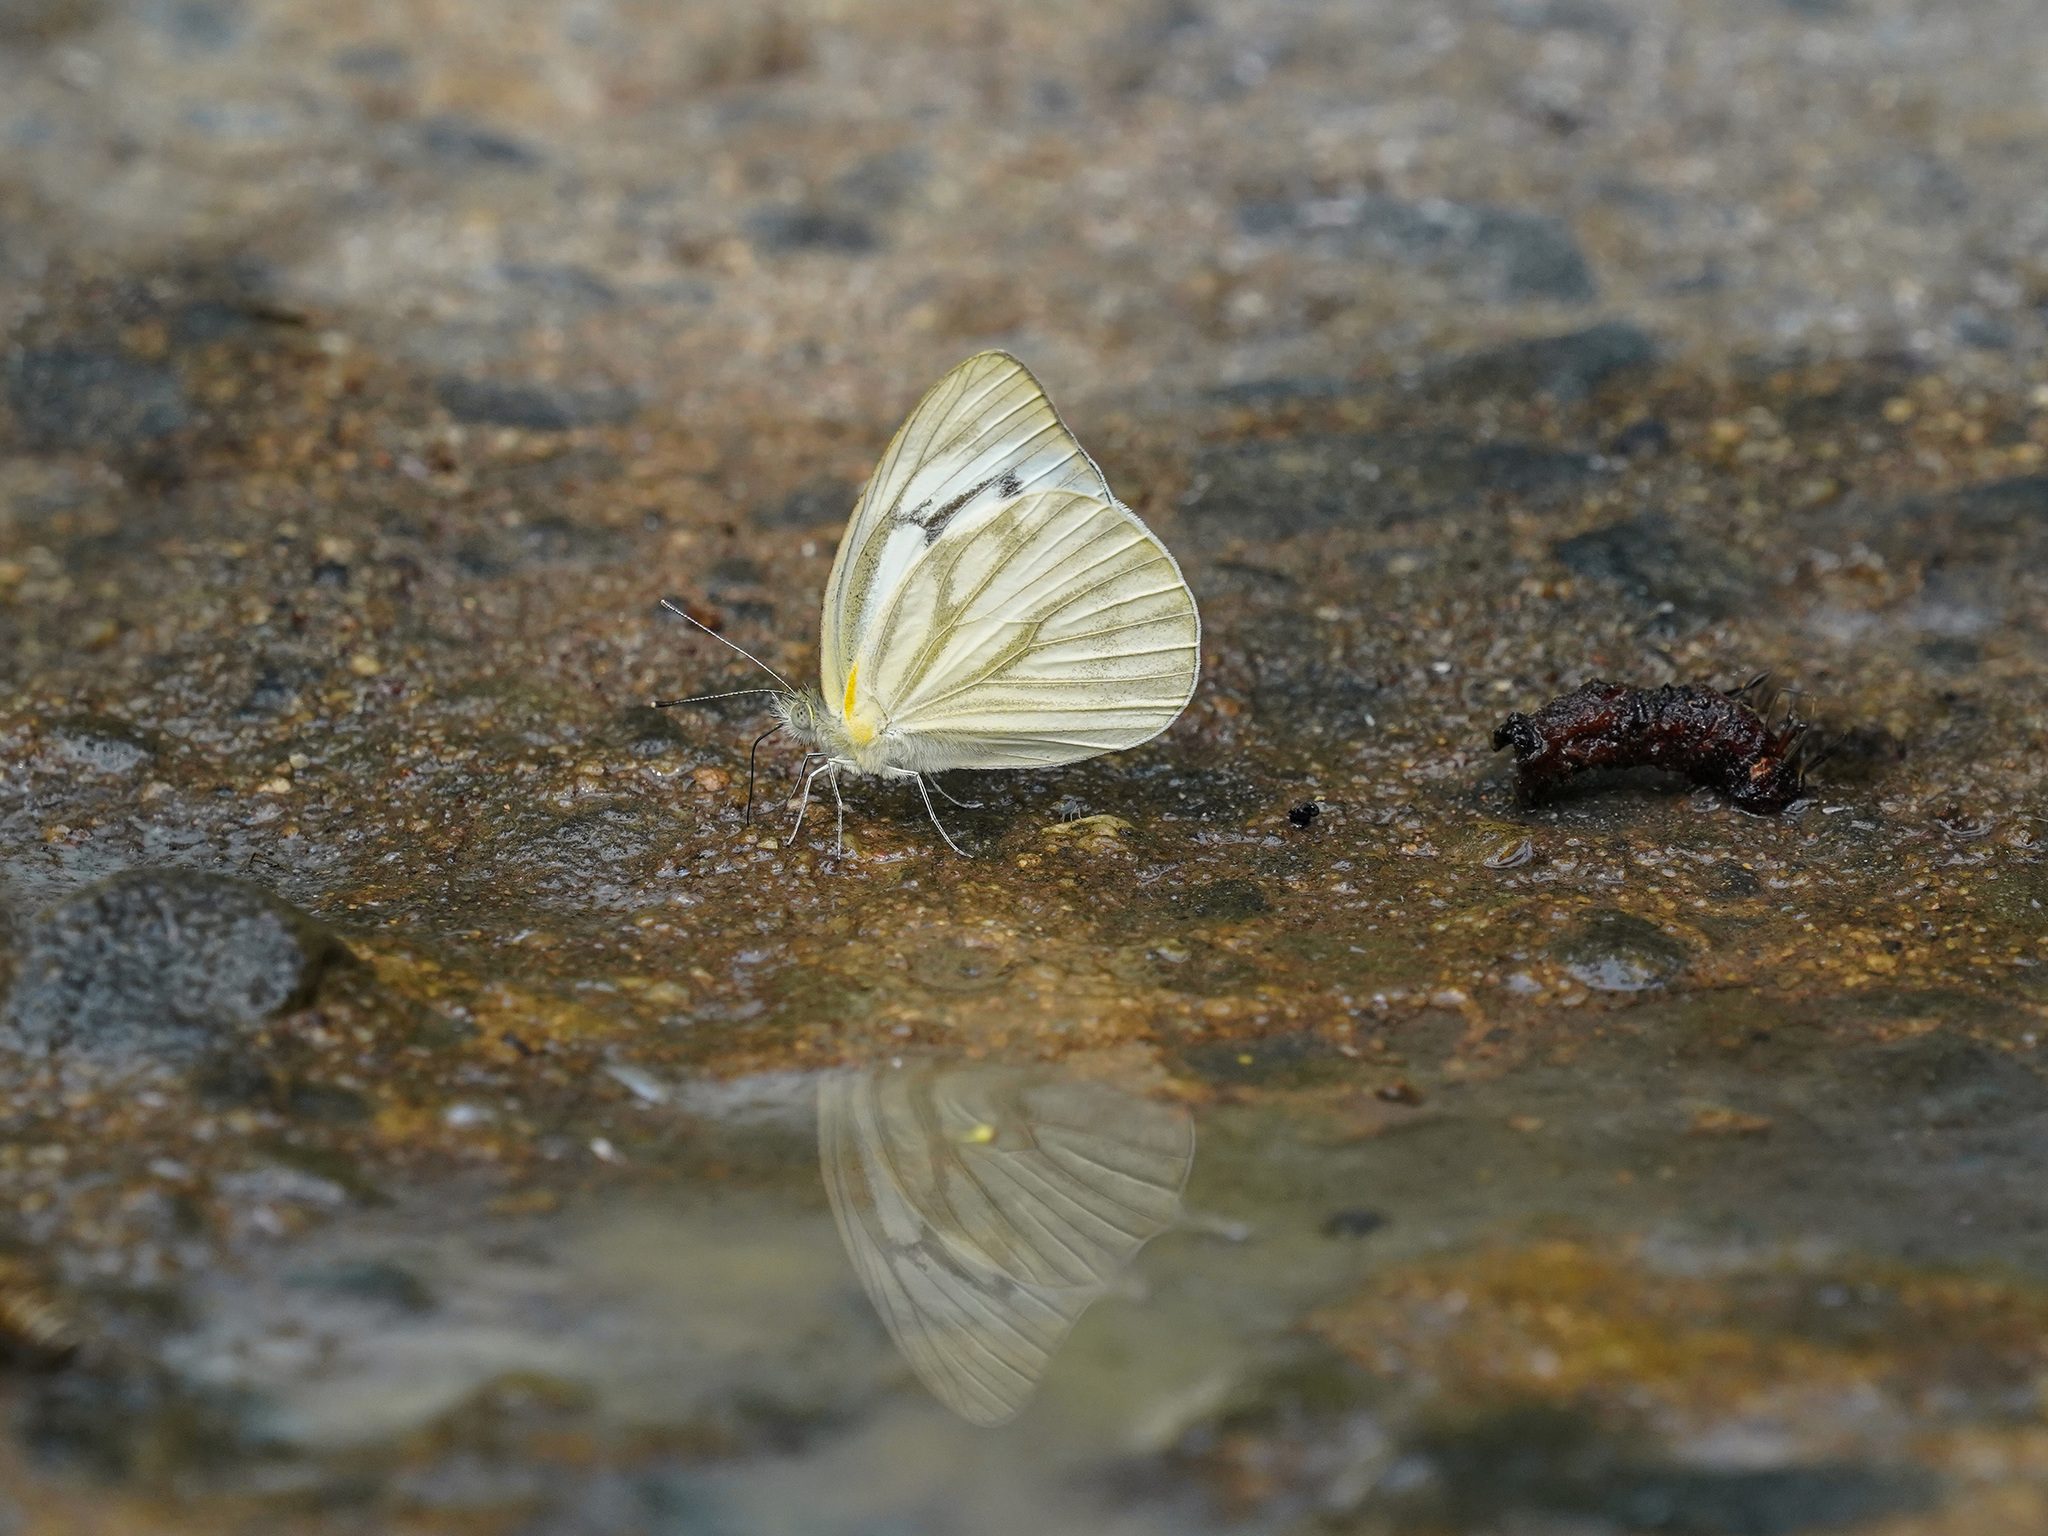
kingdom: Animalia
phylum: Arthropoda
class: Insecta
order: Lepidoptera
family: Pieridae
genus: Cepora
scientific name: Cepora nerissa
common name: Common gull
